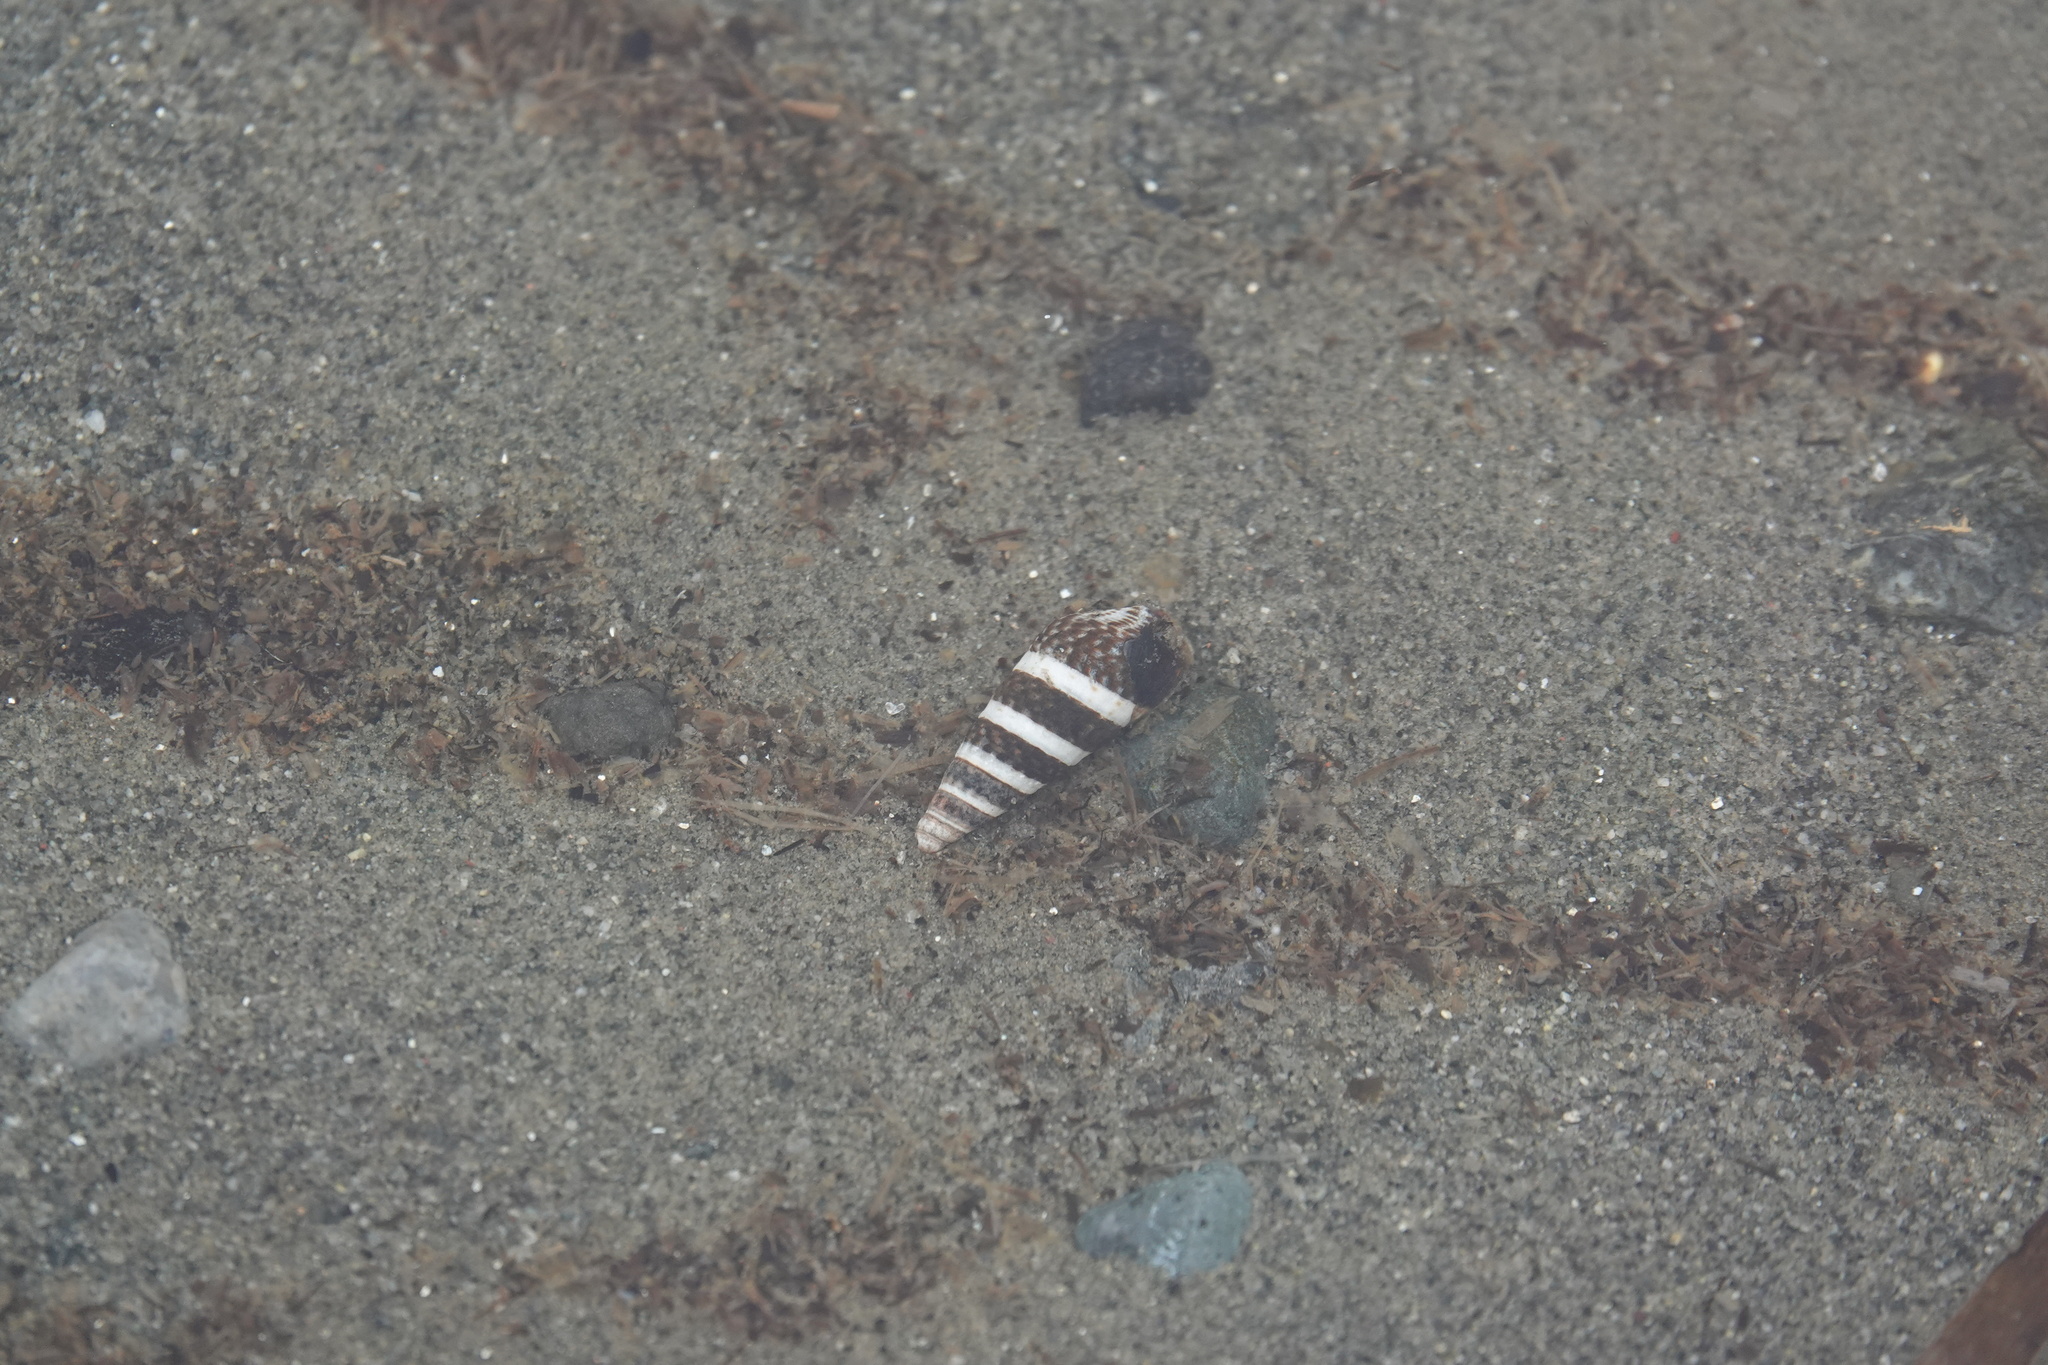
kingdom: Animalia
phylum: Mollusca
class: Gastropoda
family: Batillariidae
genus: Batillaria
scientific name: Batillaria attramentaria
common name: Japanese false cerith
